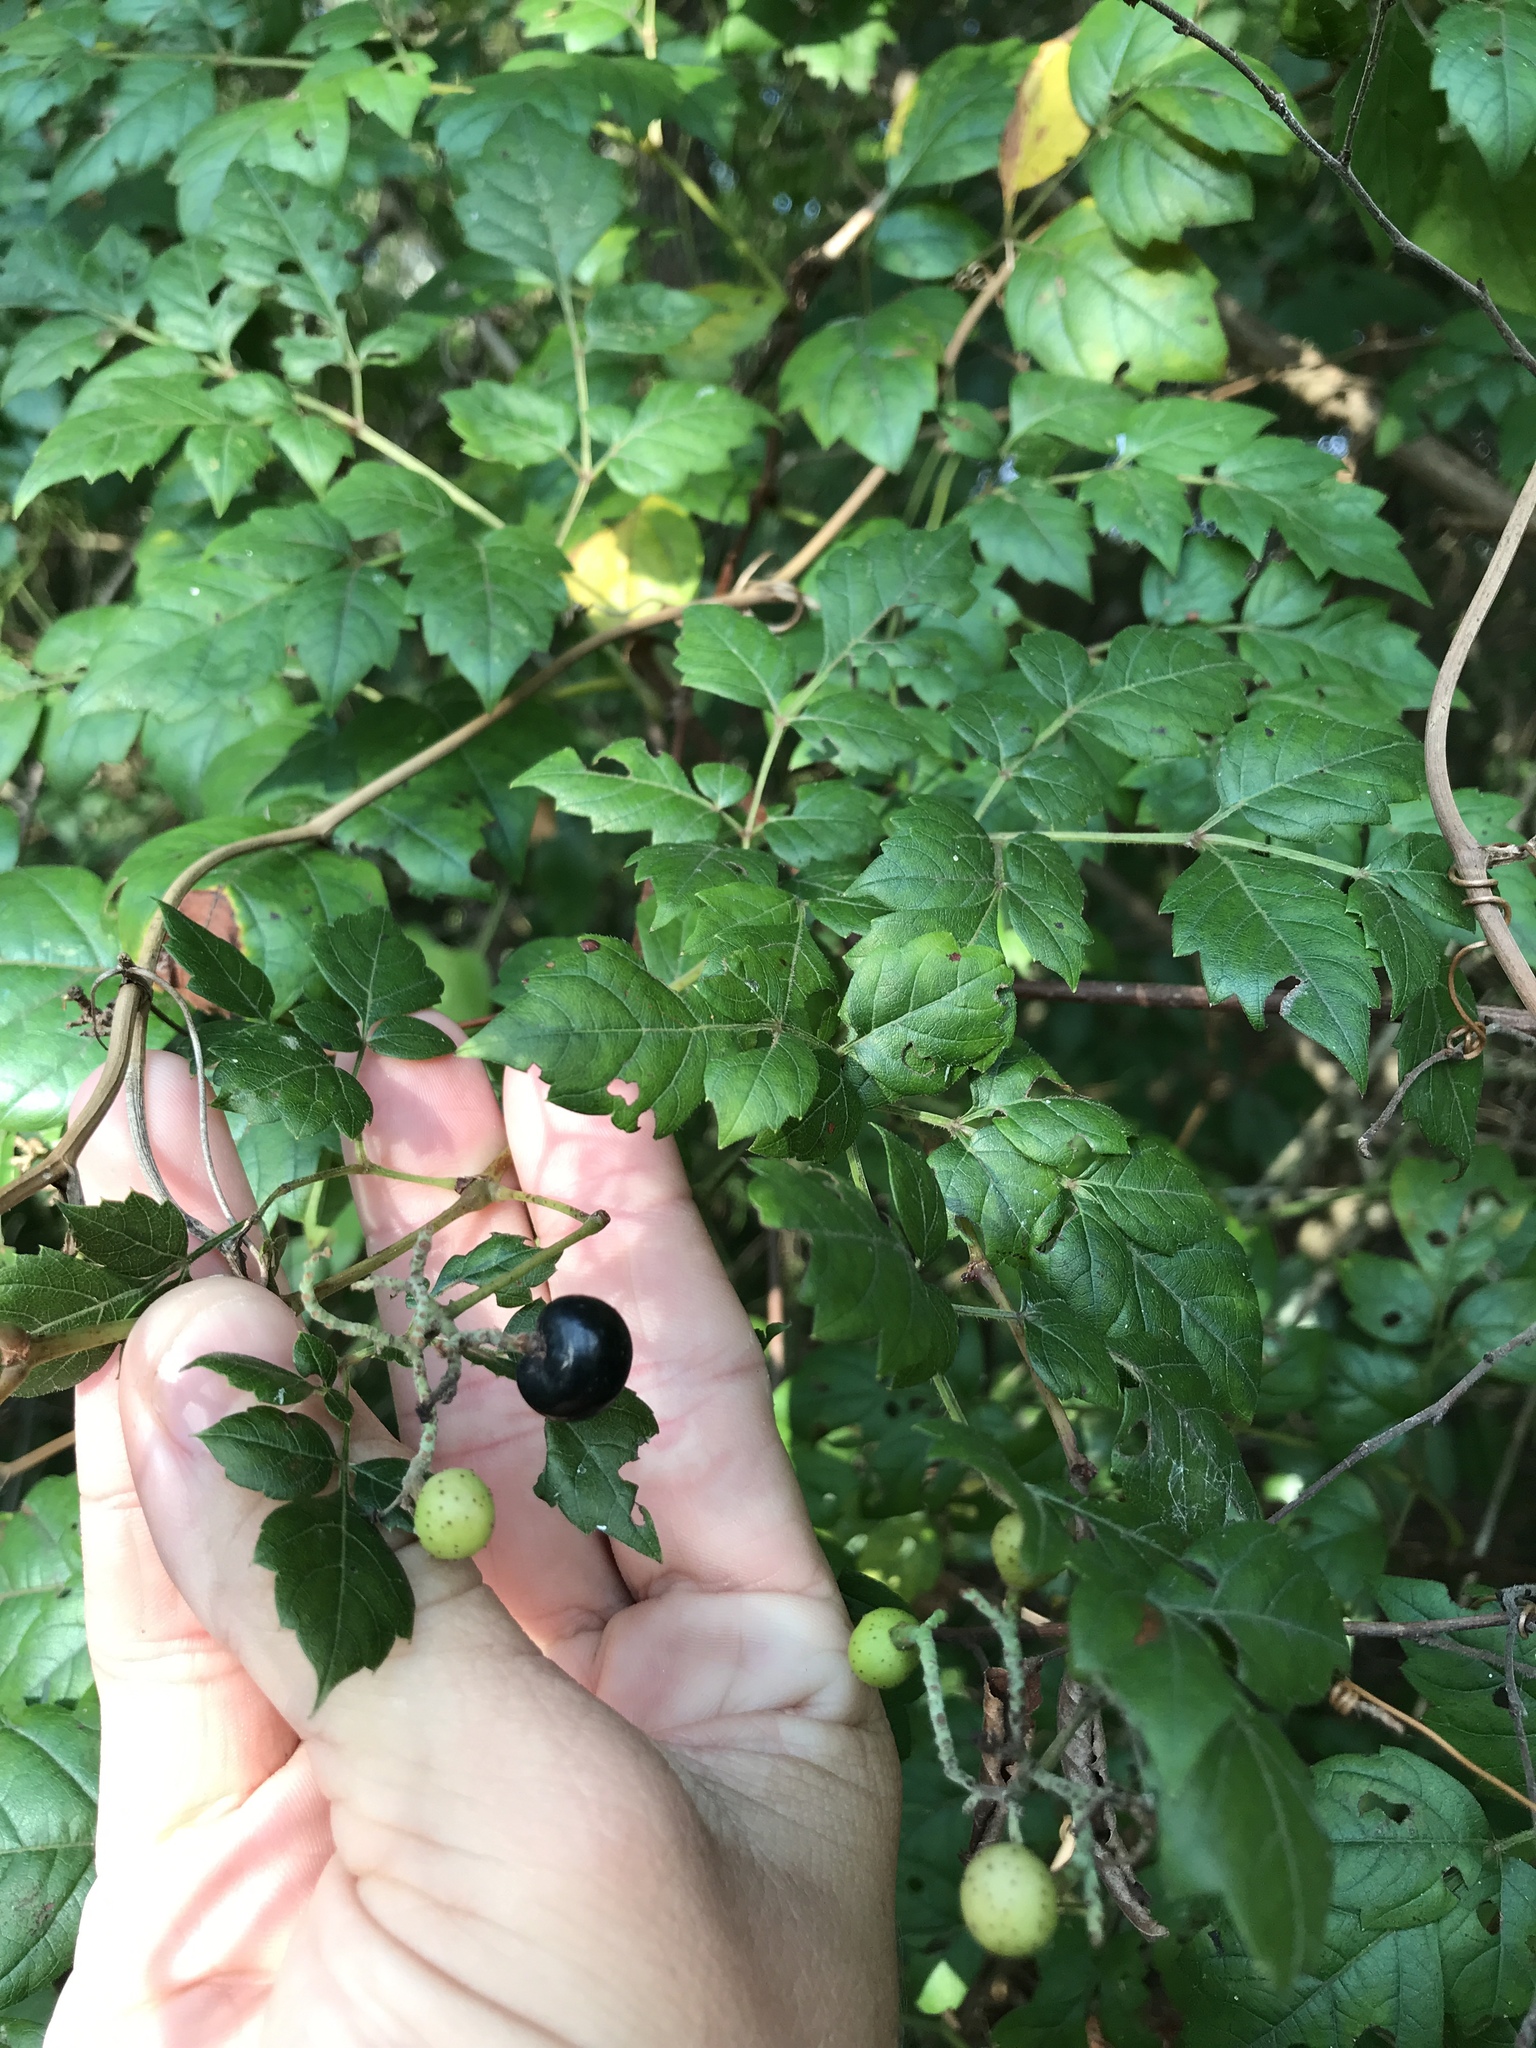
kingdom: Plantae
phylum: Tracheophyta
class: Magnoliopsida
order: Vitales
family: Vitaceae
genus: Nekemias
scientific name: Nekemias arborea
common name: Peppervine
